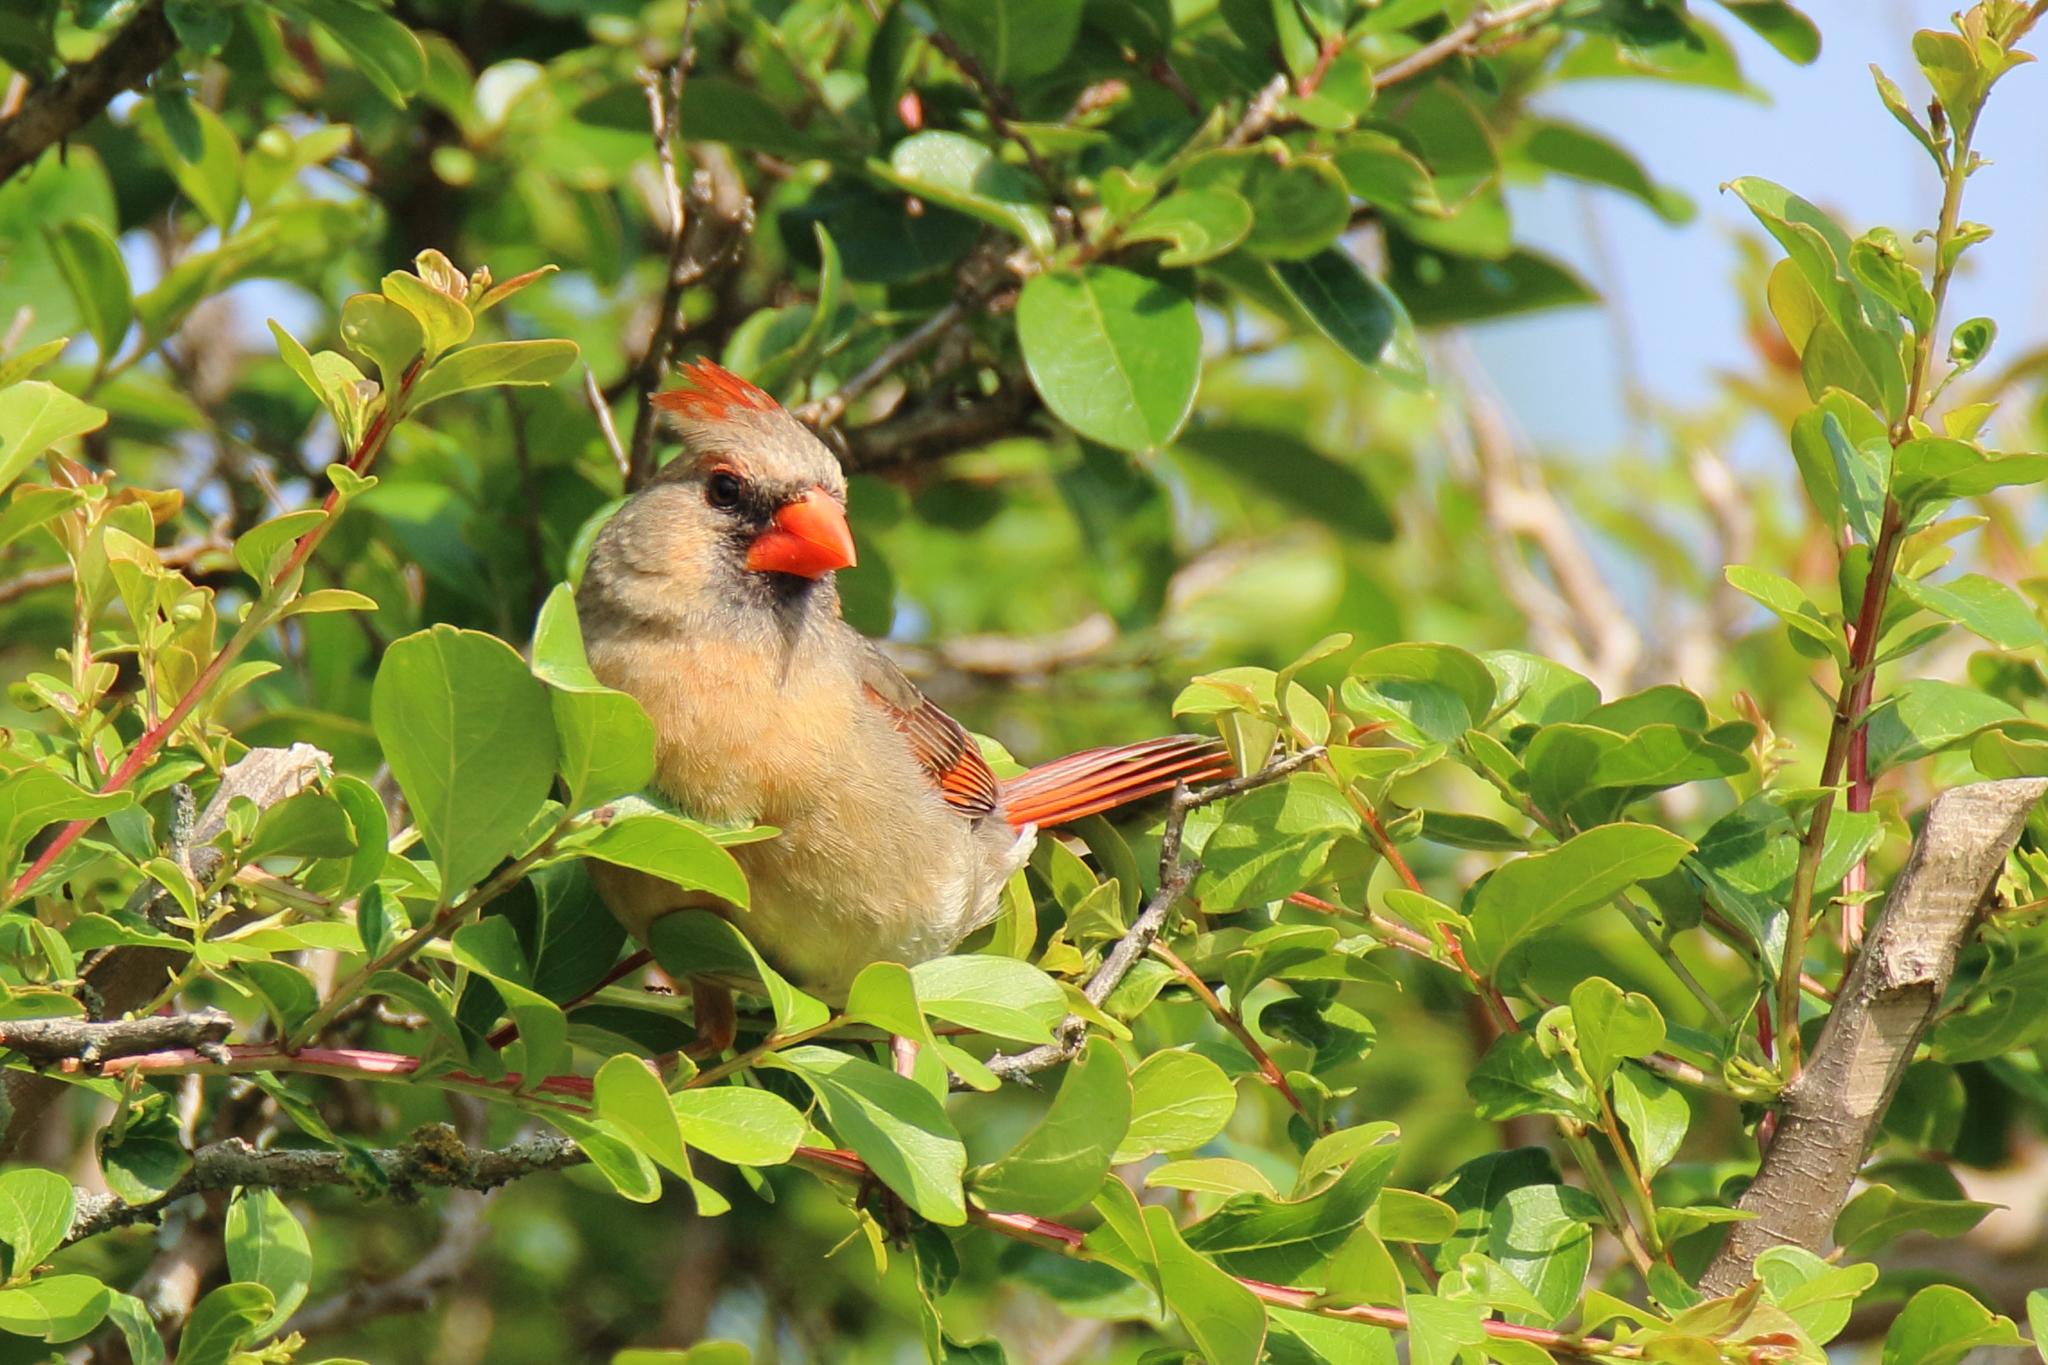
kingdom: Animalia
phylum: Chordata
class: Aves
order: Passeriformes
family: Cardinalidae
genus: Cardinalis
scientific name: Cardinalis cardinalis
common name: Northern cardinal
